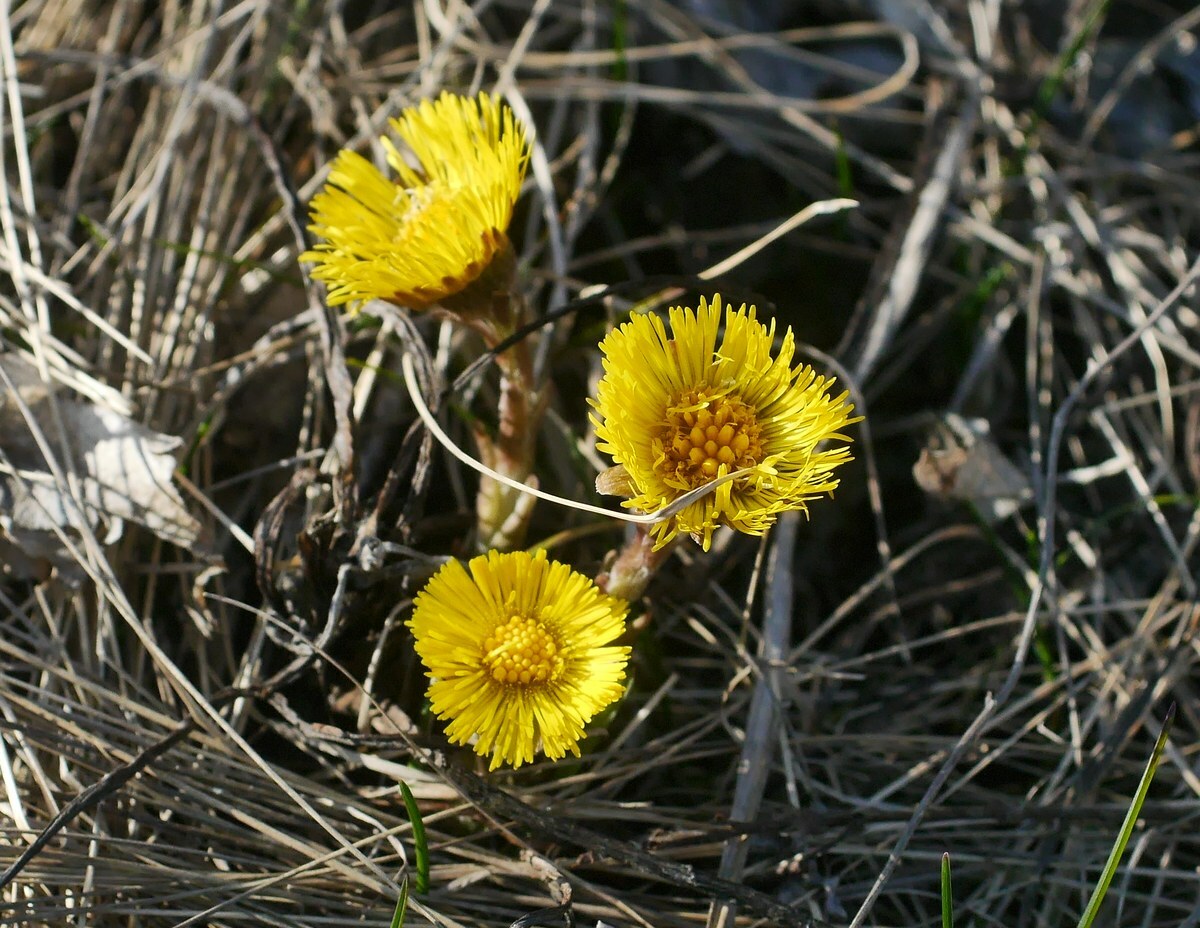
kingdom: Plantae
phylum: Tracheophyta
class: Magnoliopsida
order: Asterales
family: Asteraceae
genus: Tussilago
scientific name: Tussilago farfara
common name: Coltsfoot
